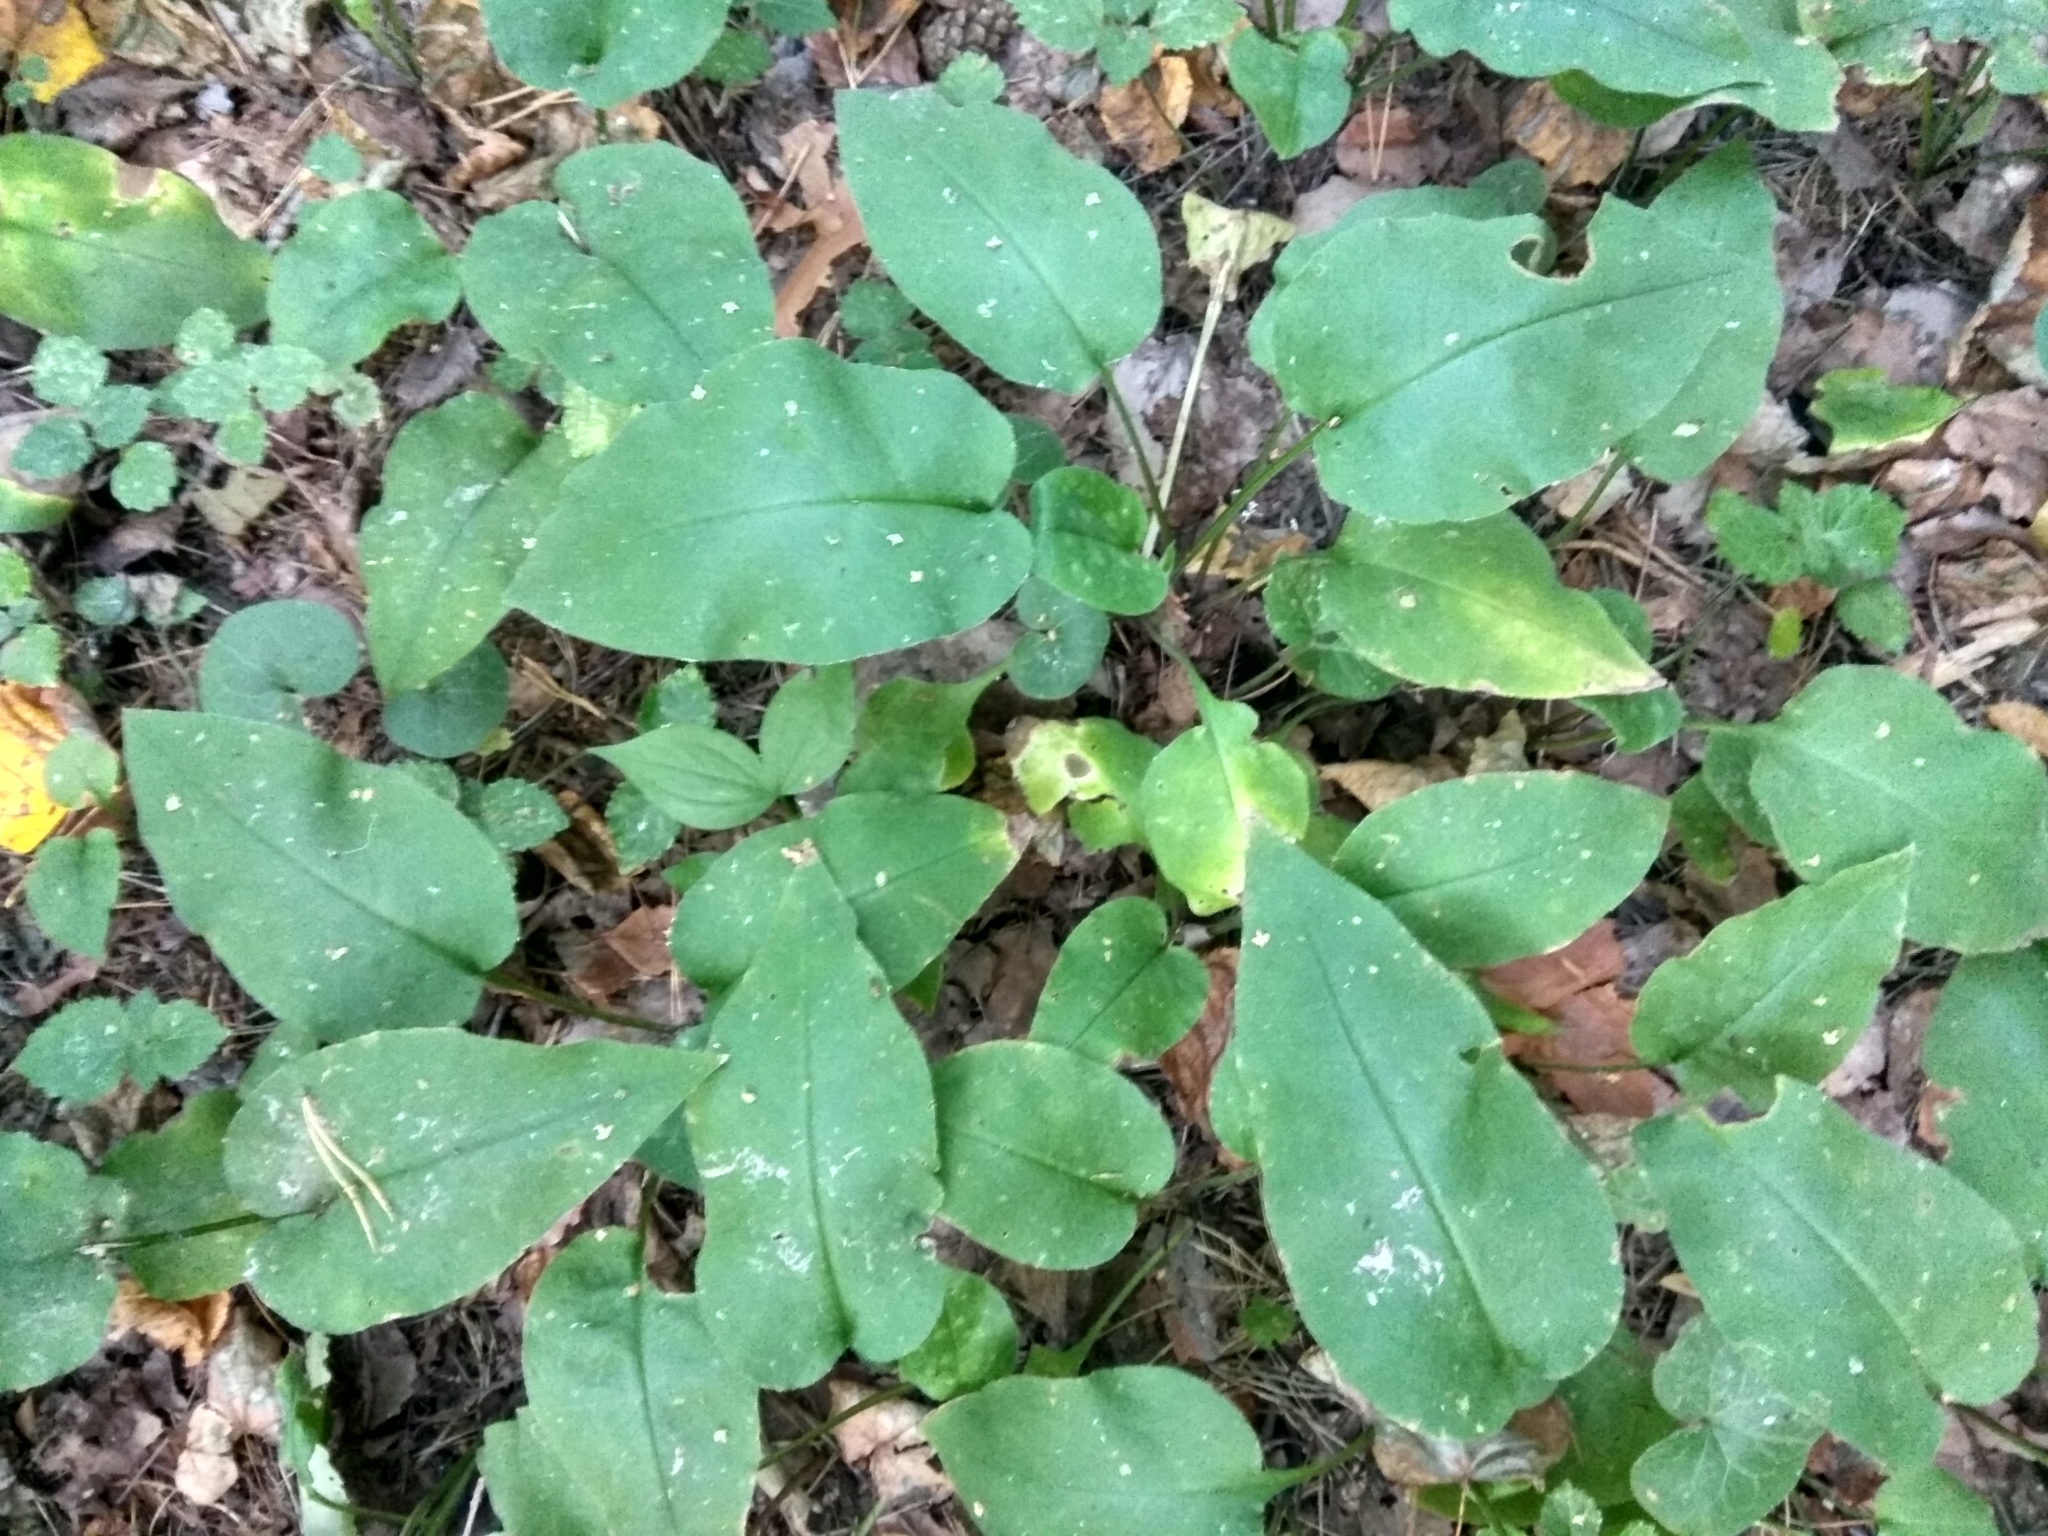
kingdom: Plantae
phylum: Tracheophyta
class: Magnoliopsida
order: Boraginales
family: Boraginaceae
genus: Pulmonaria
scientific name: Pulmonaria obscura
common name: Suffolk lungwort
